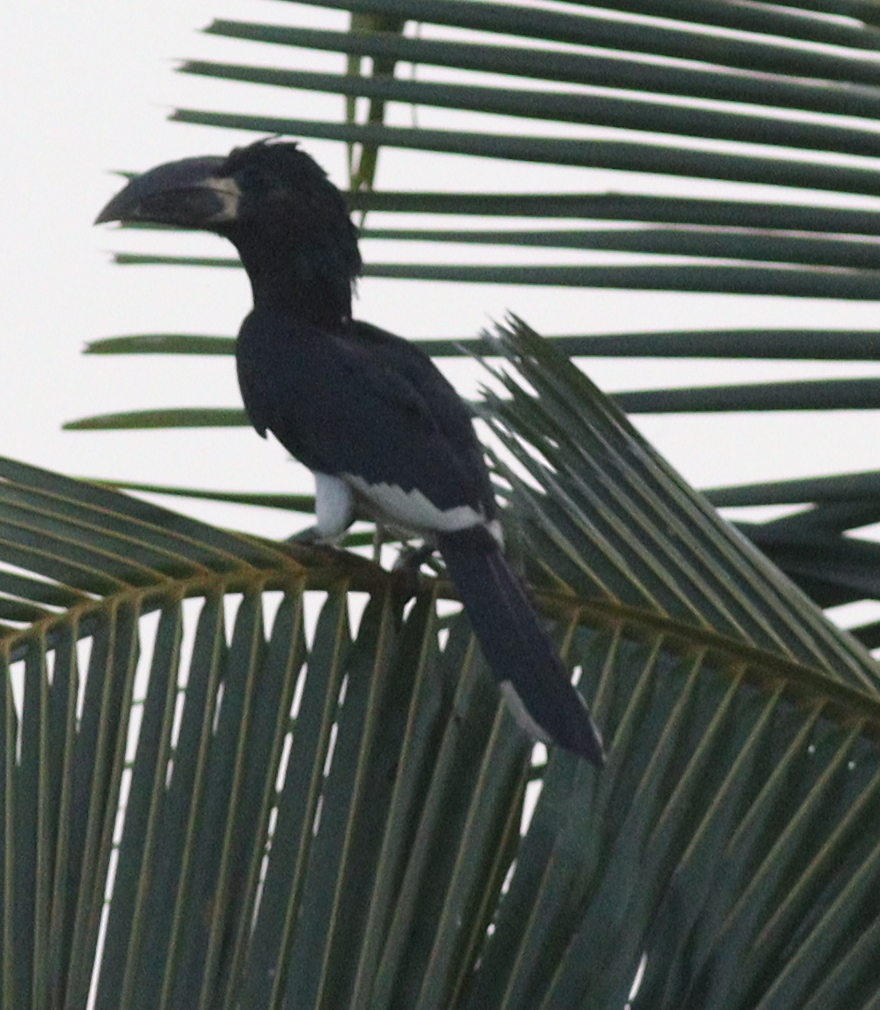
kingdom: Animalia
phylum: Chordata
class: Aves
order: Bucerotiformes
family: Bucerotidae
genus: Bycanistes
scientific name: Bycanistes fistulator
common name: Piping hornbill
